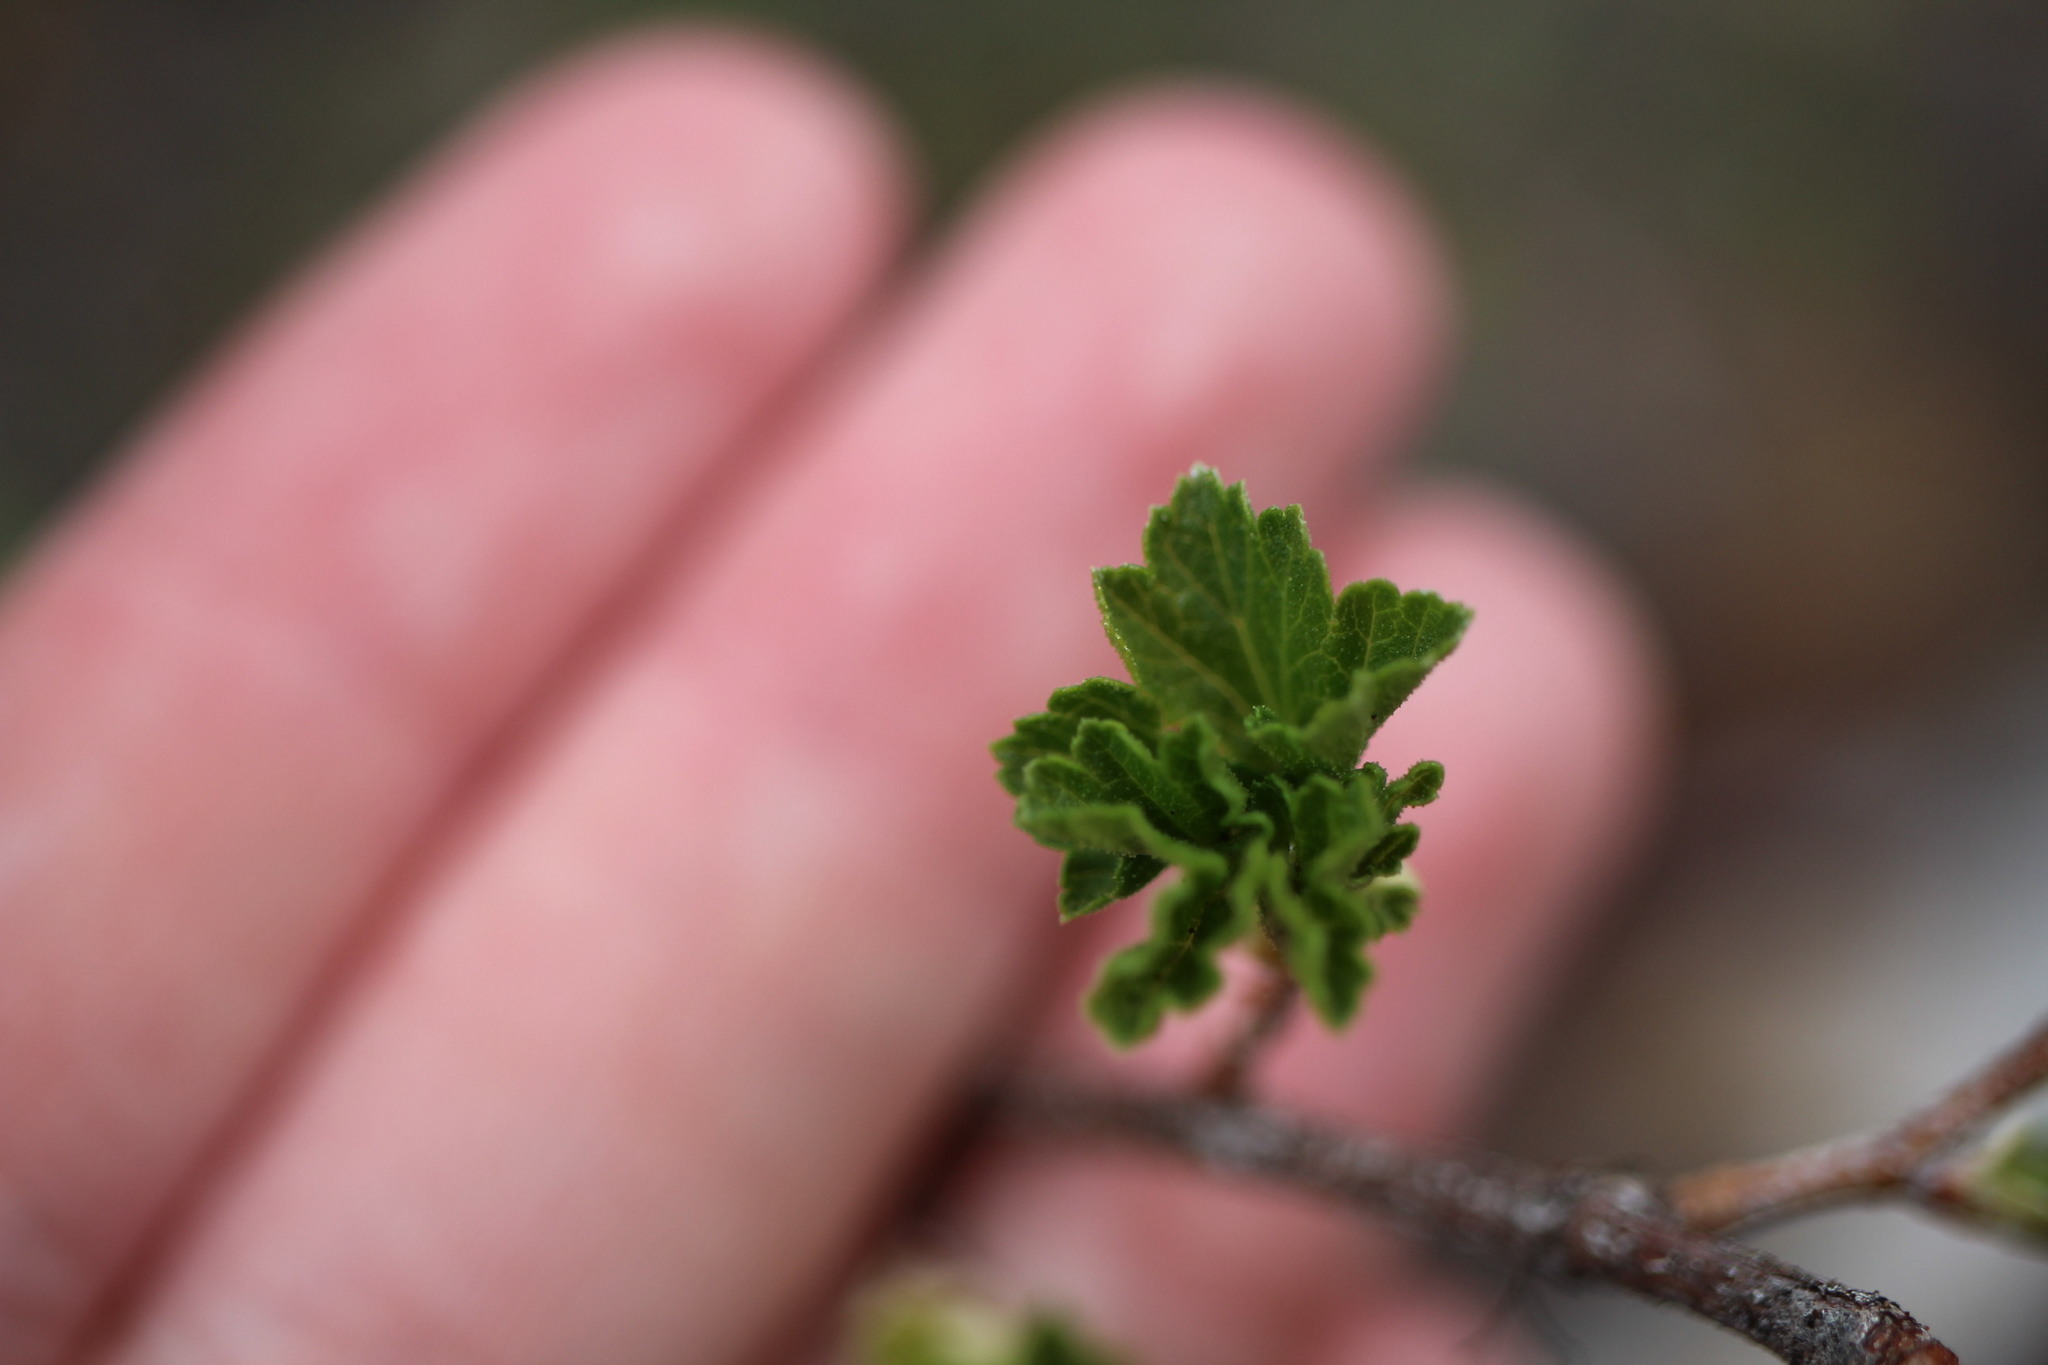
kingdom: Plantae
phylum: Tracheophyta
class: Magnoliopsida
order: Saxifragales
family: Grossulariaceae
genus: Ribes
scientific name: Ribes cereum
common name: Wax currant
